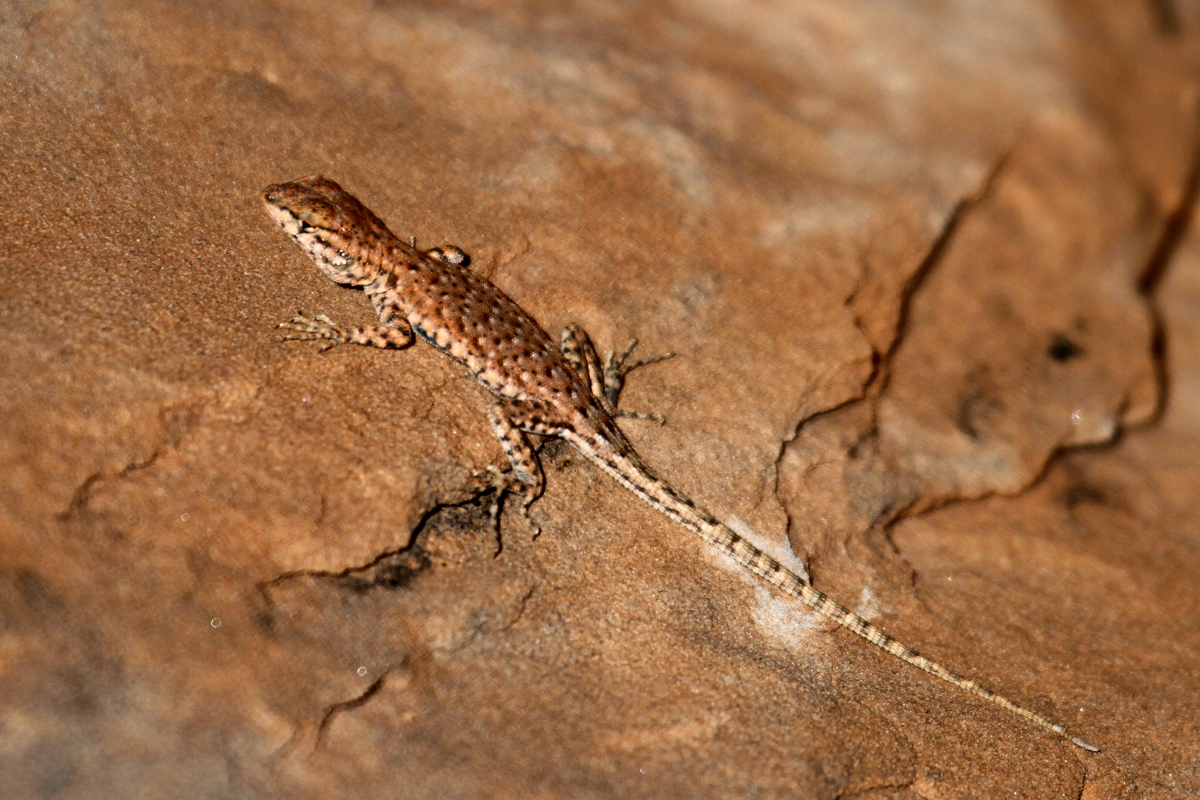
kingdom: Animalia
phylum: Chordata
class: Squamata
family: Phrynosomatidae
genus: Uta
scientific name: Uta stansburiana
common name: Side-blotched lizard
